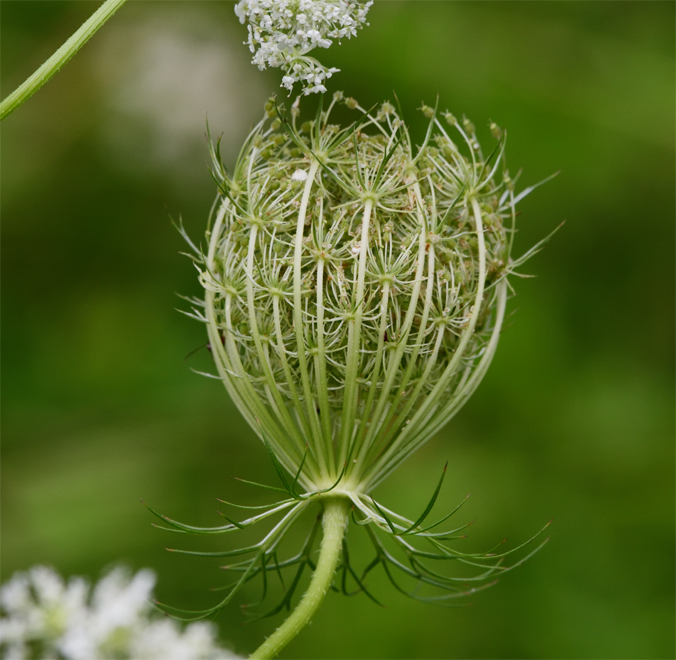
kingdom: Plantae
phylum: Tracheophyta
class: Magnoliopsida
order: Apiales
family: Apiaceae
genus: Daucus
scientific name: Daucus carota
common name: Wild carrot
